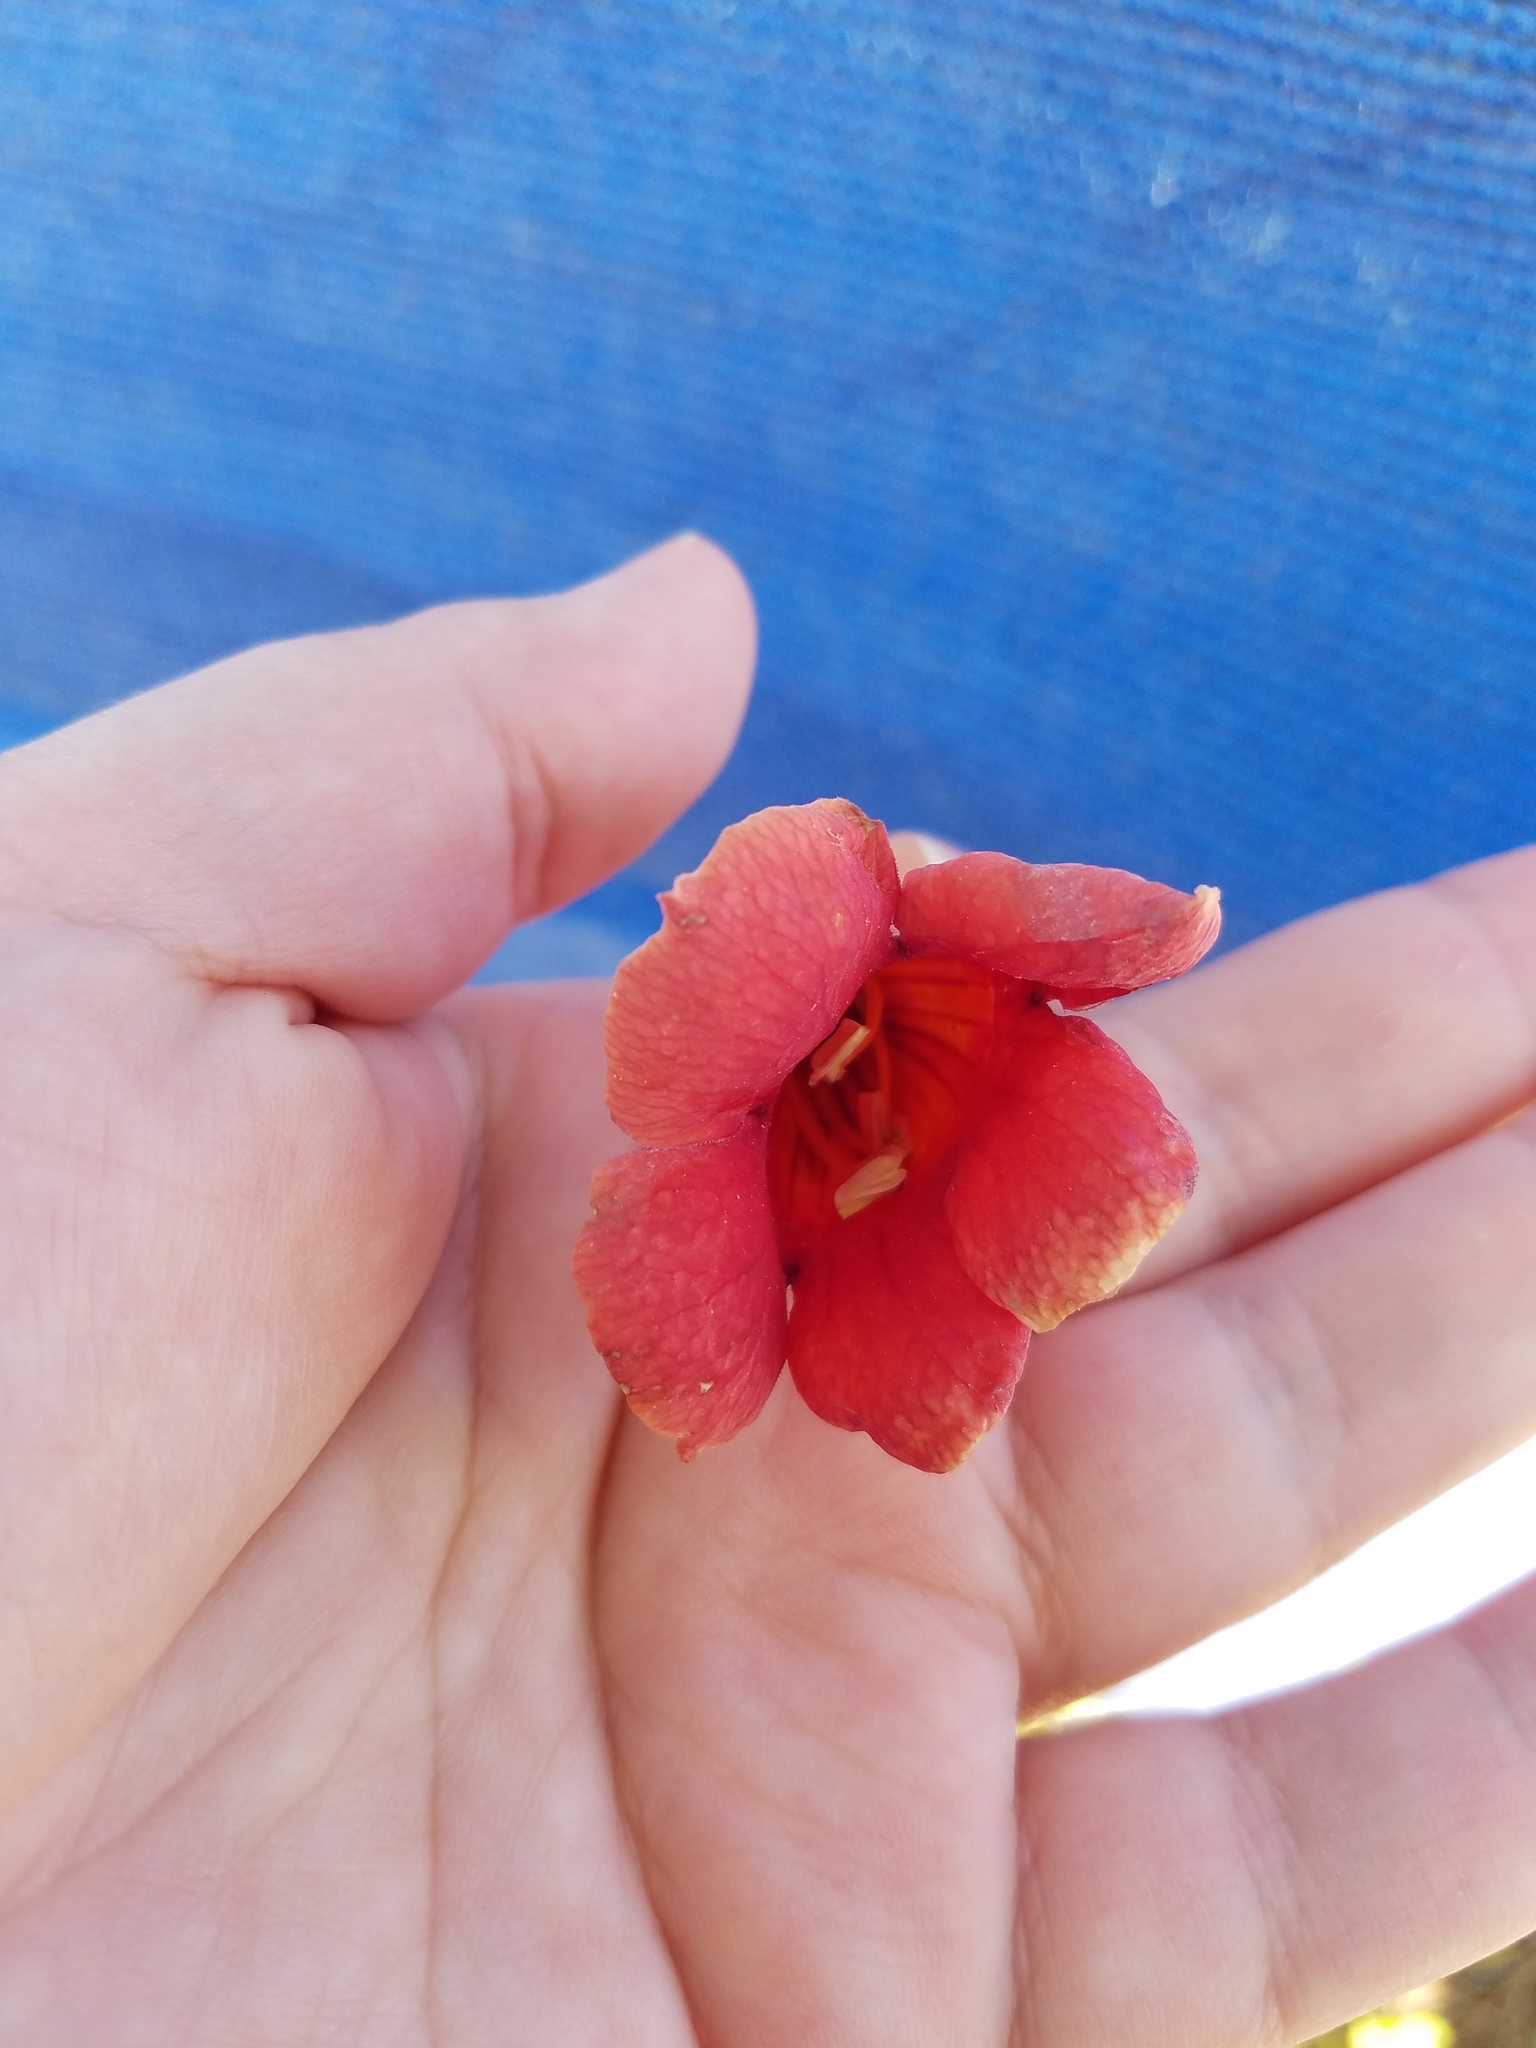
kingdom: Plantae
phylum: Tracheophyta
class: Magnoliopsida
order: Lamiales
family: Bignoniaceae
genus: Campsis
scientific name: Campsis radicans
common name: Trumpet-creeper
